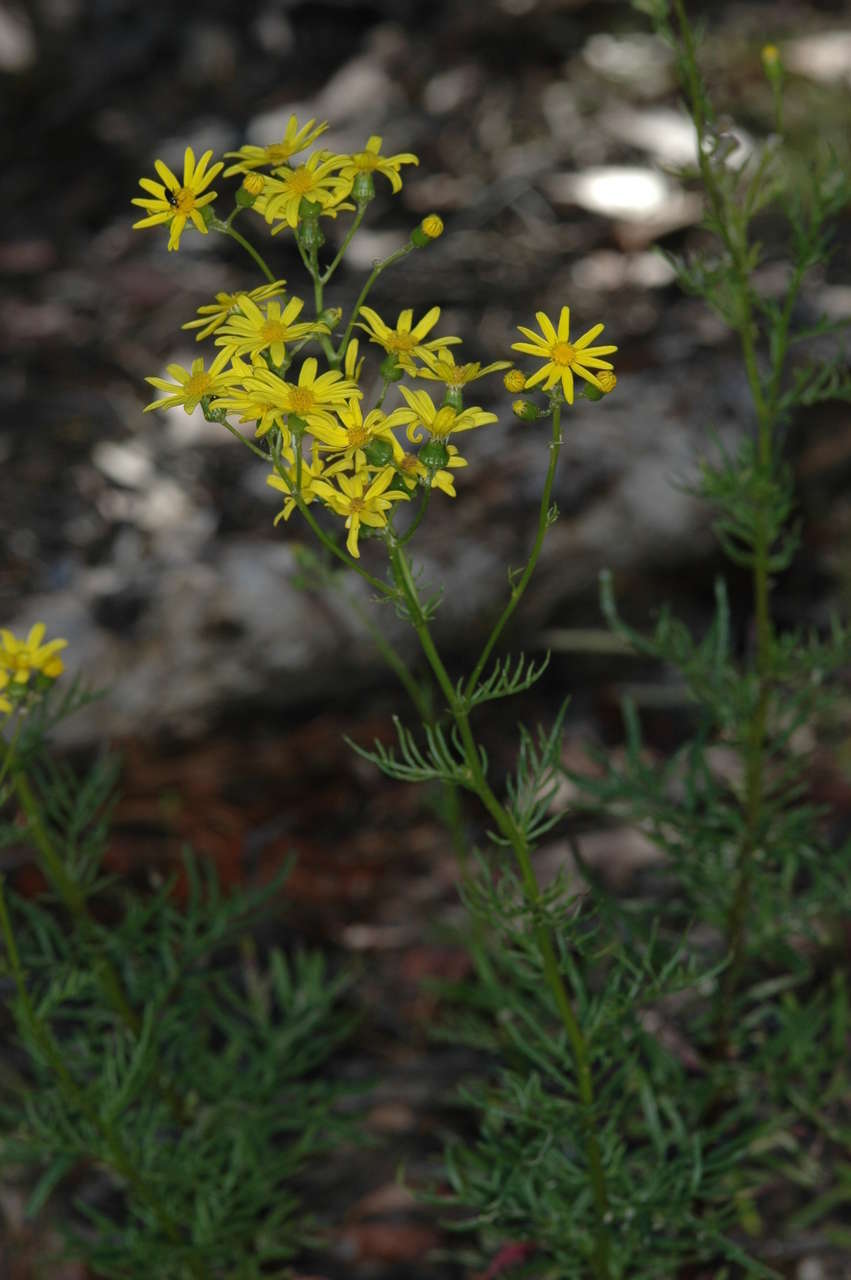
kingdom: Plantae
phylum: Tracheophyta
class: Magnoliopsida
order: Asterales
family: Asteraceae
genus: Senecio
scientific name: Senecio pinnatifolius
